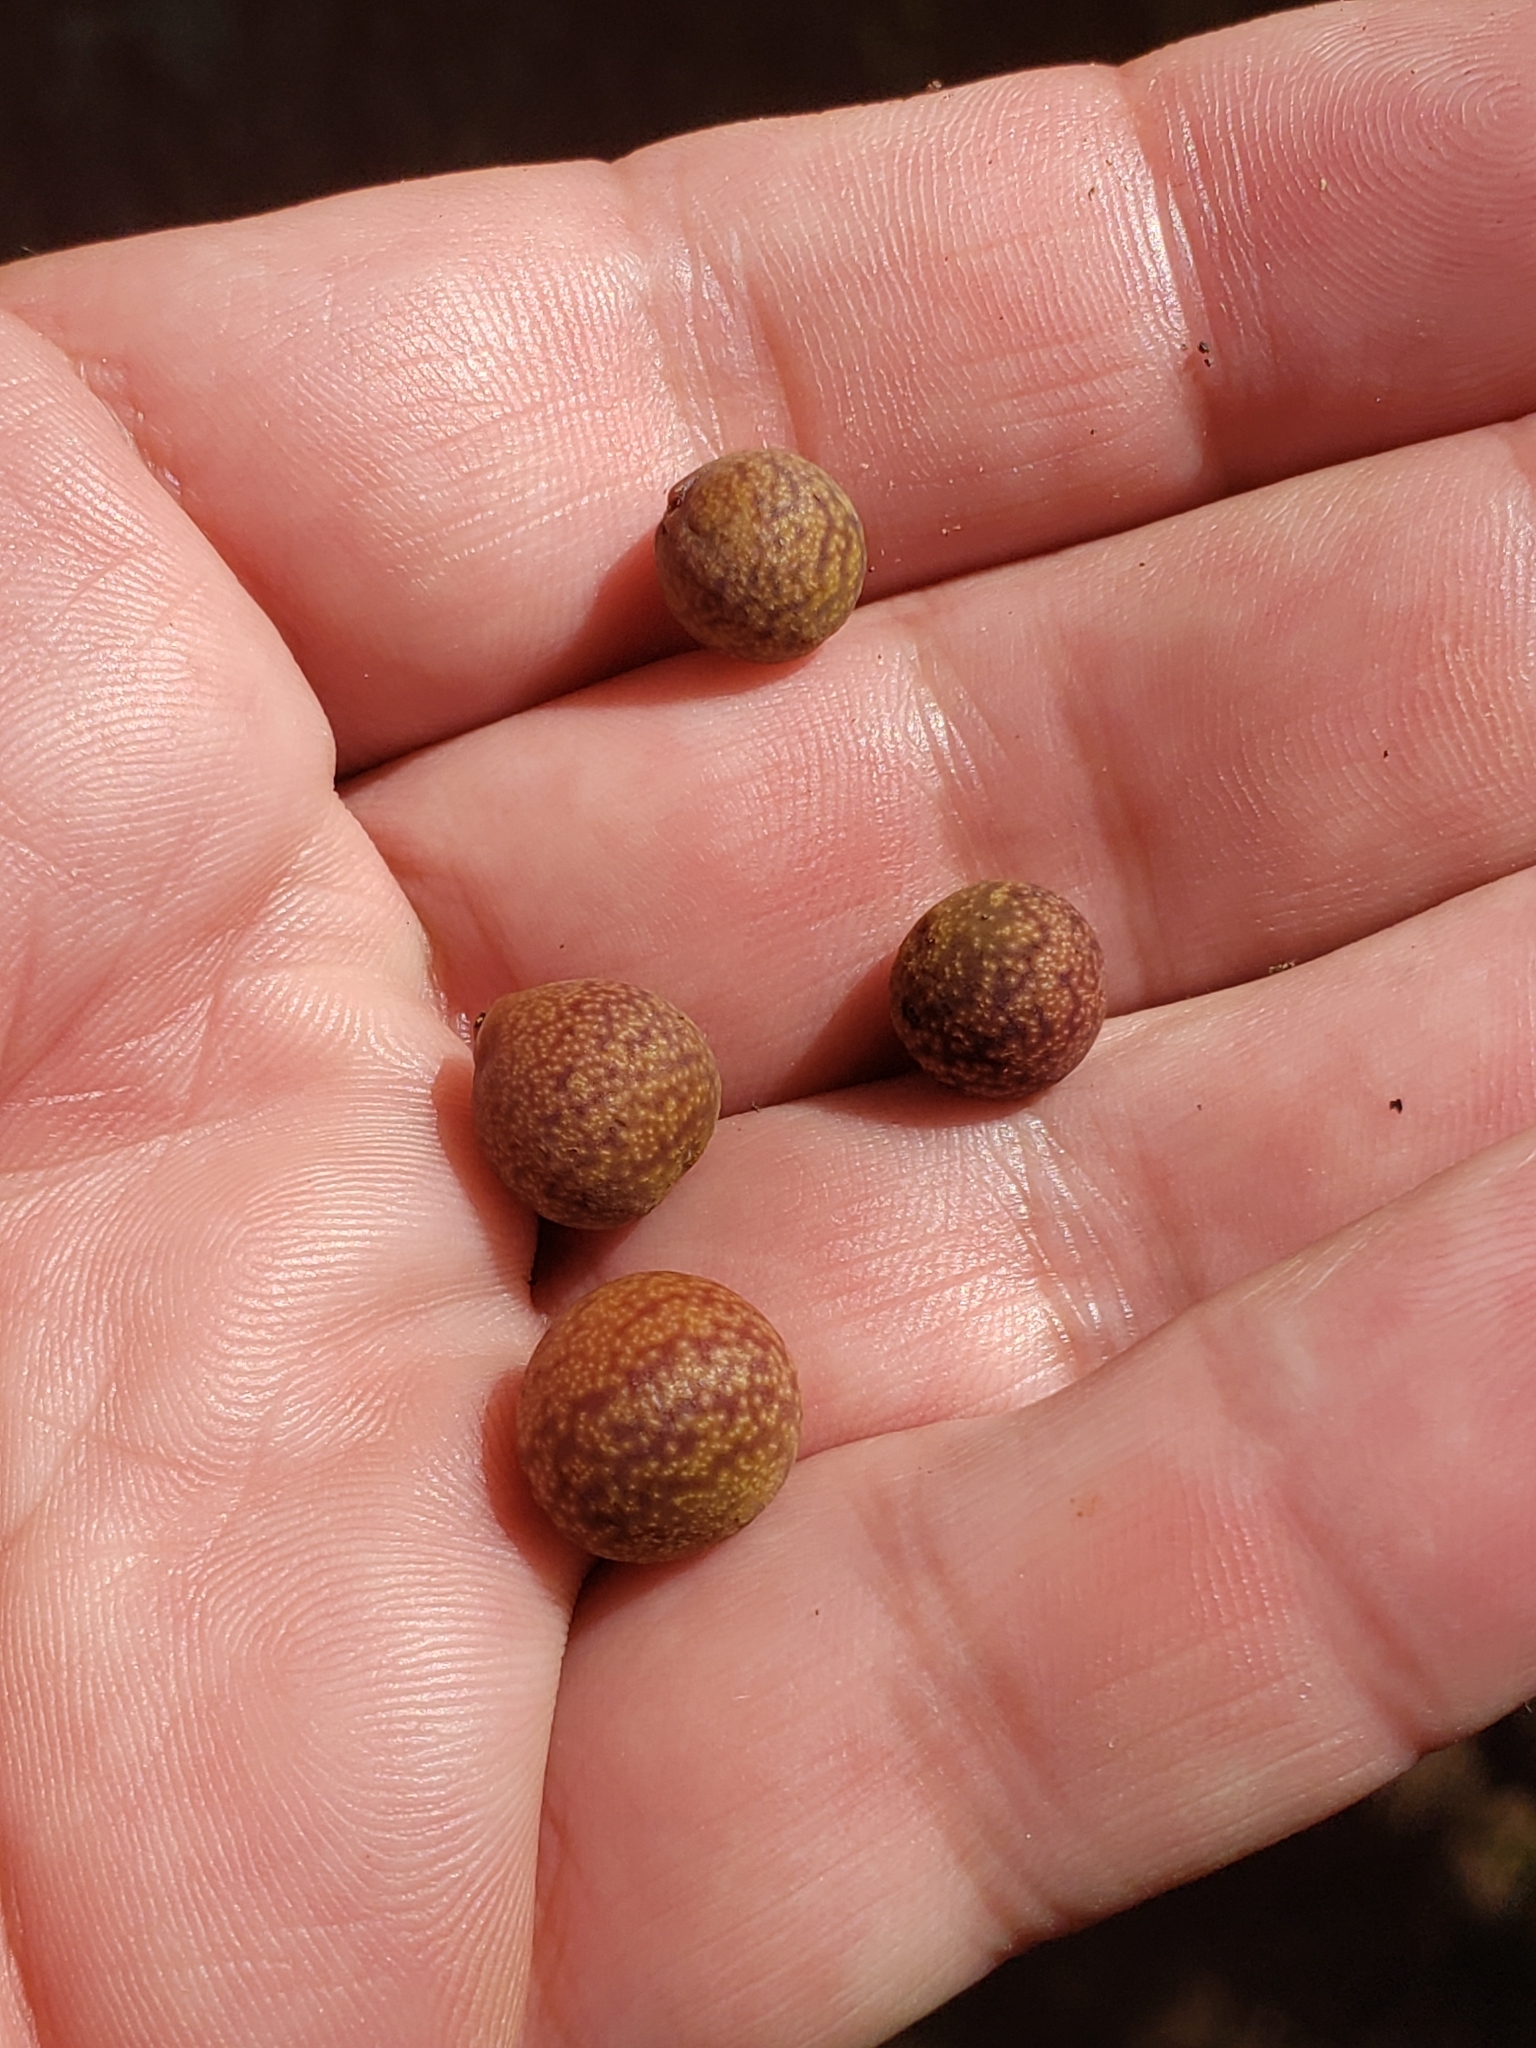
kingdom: Animalia
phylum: Arthropoda
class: Insecta
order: Hymenoptera
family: Cynipidae
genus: Kokkocynips
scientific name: Kokkocynips imbricariae
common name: Banded bullet gall wasp
